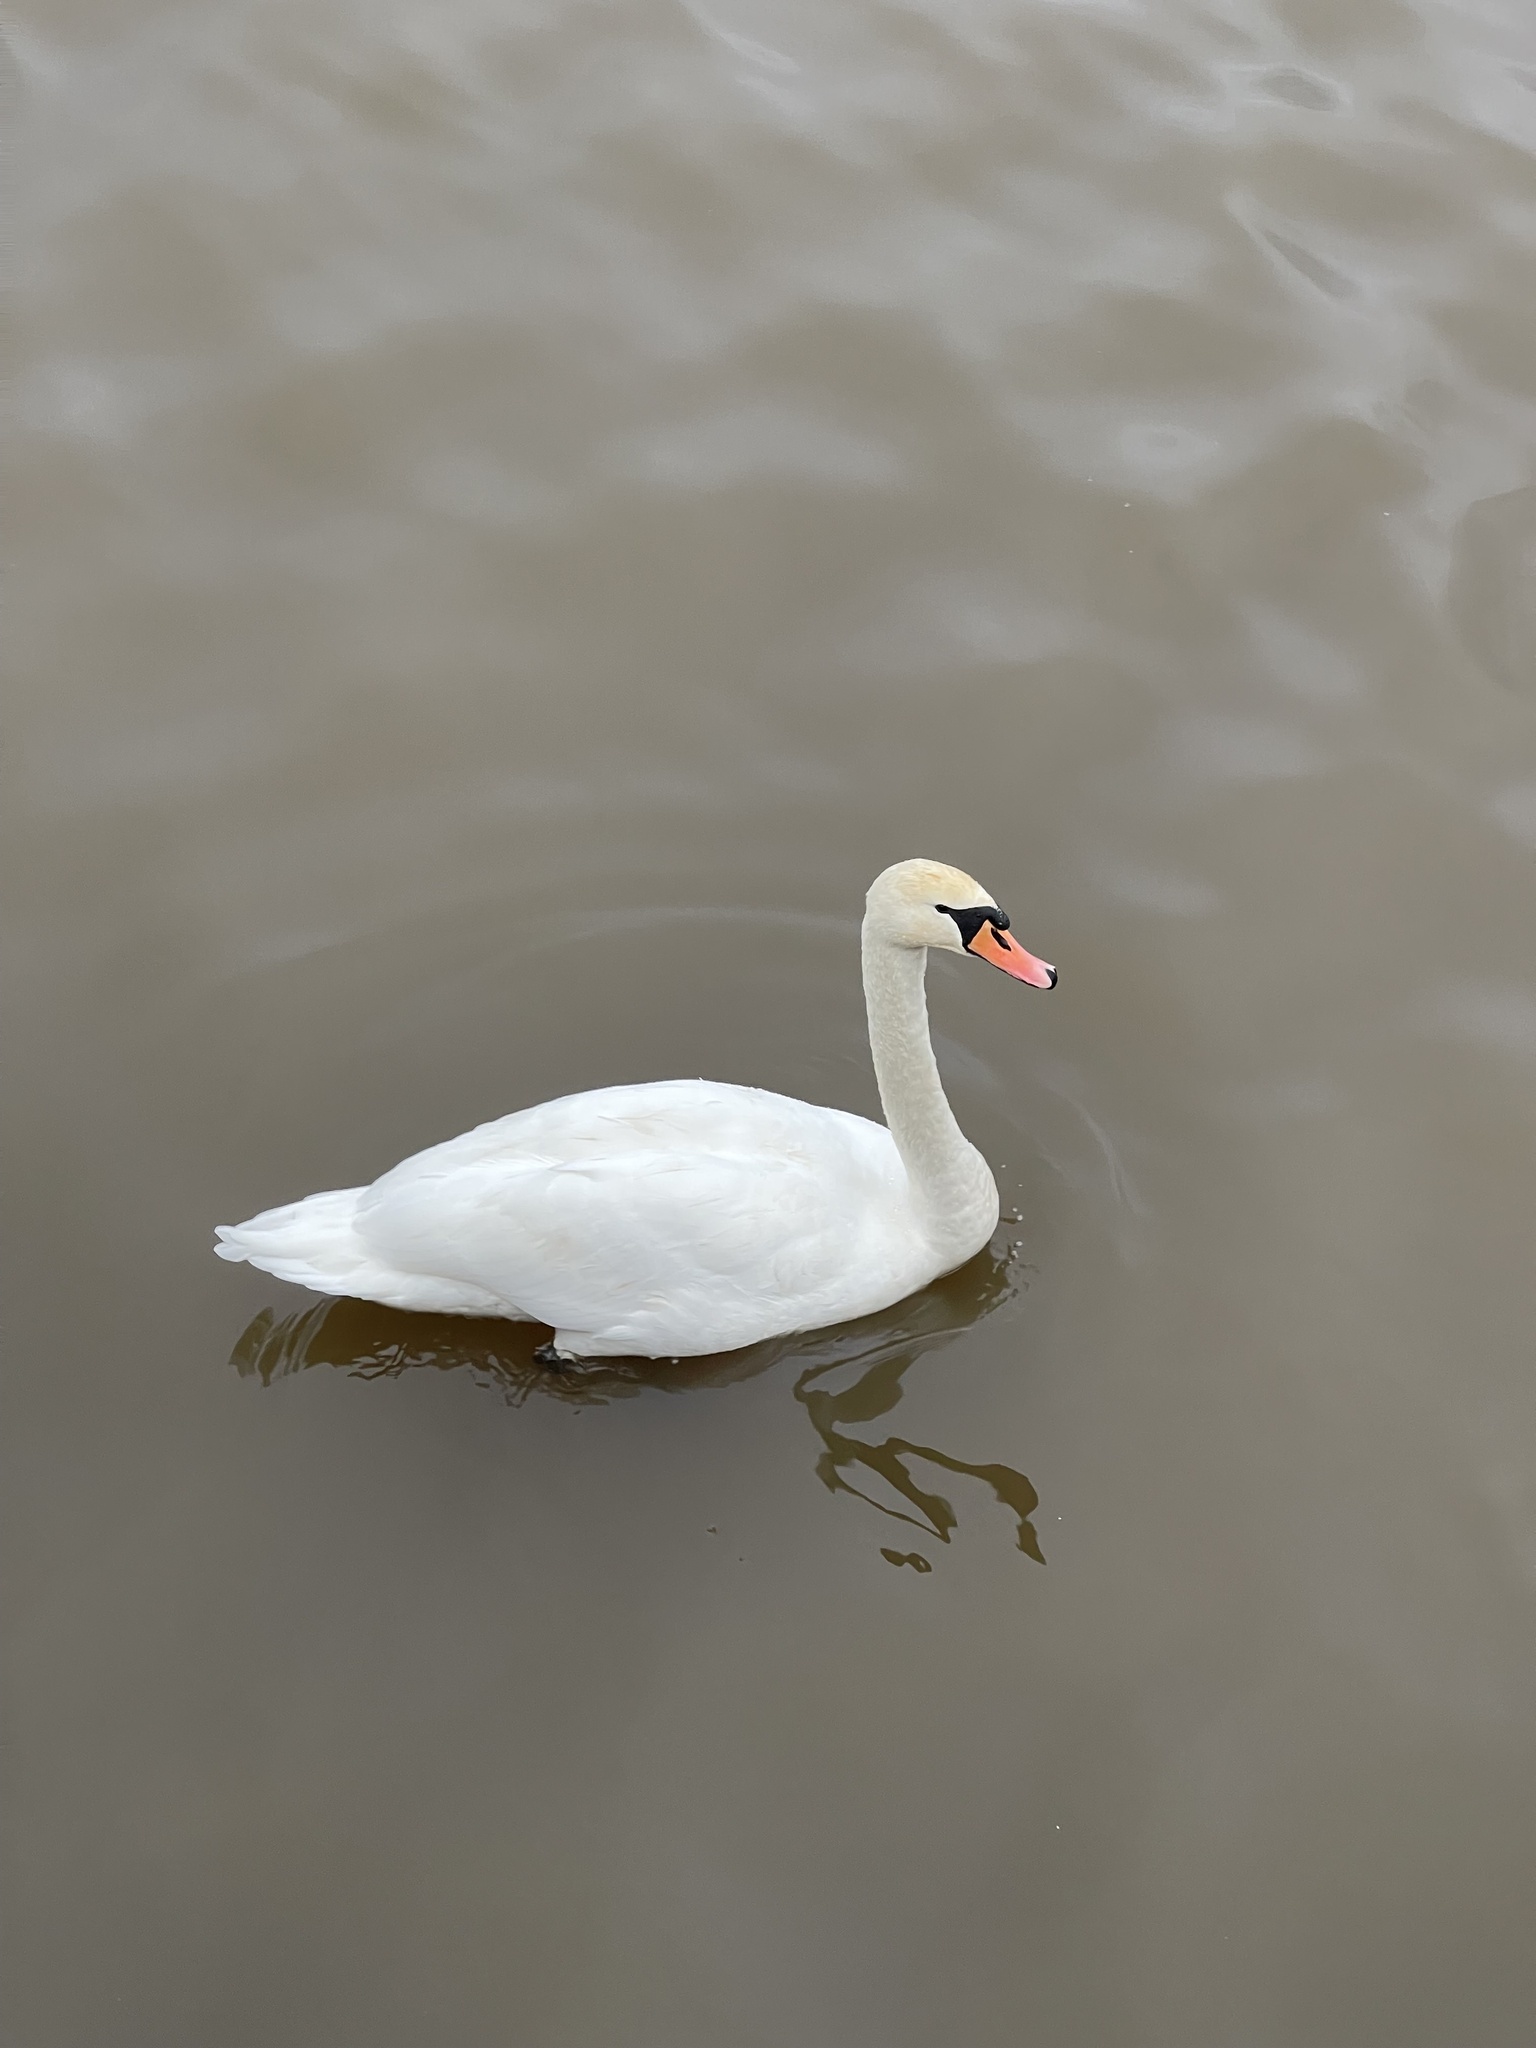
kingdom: Animalia
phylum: Chordata
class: Aves
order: Anseriformes
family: Anatidae
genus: Cygnus
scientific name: Cygnus olor
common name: Mute swan
